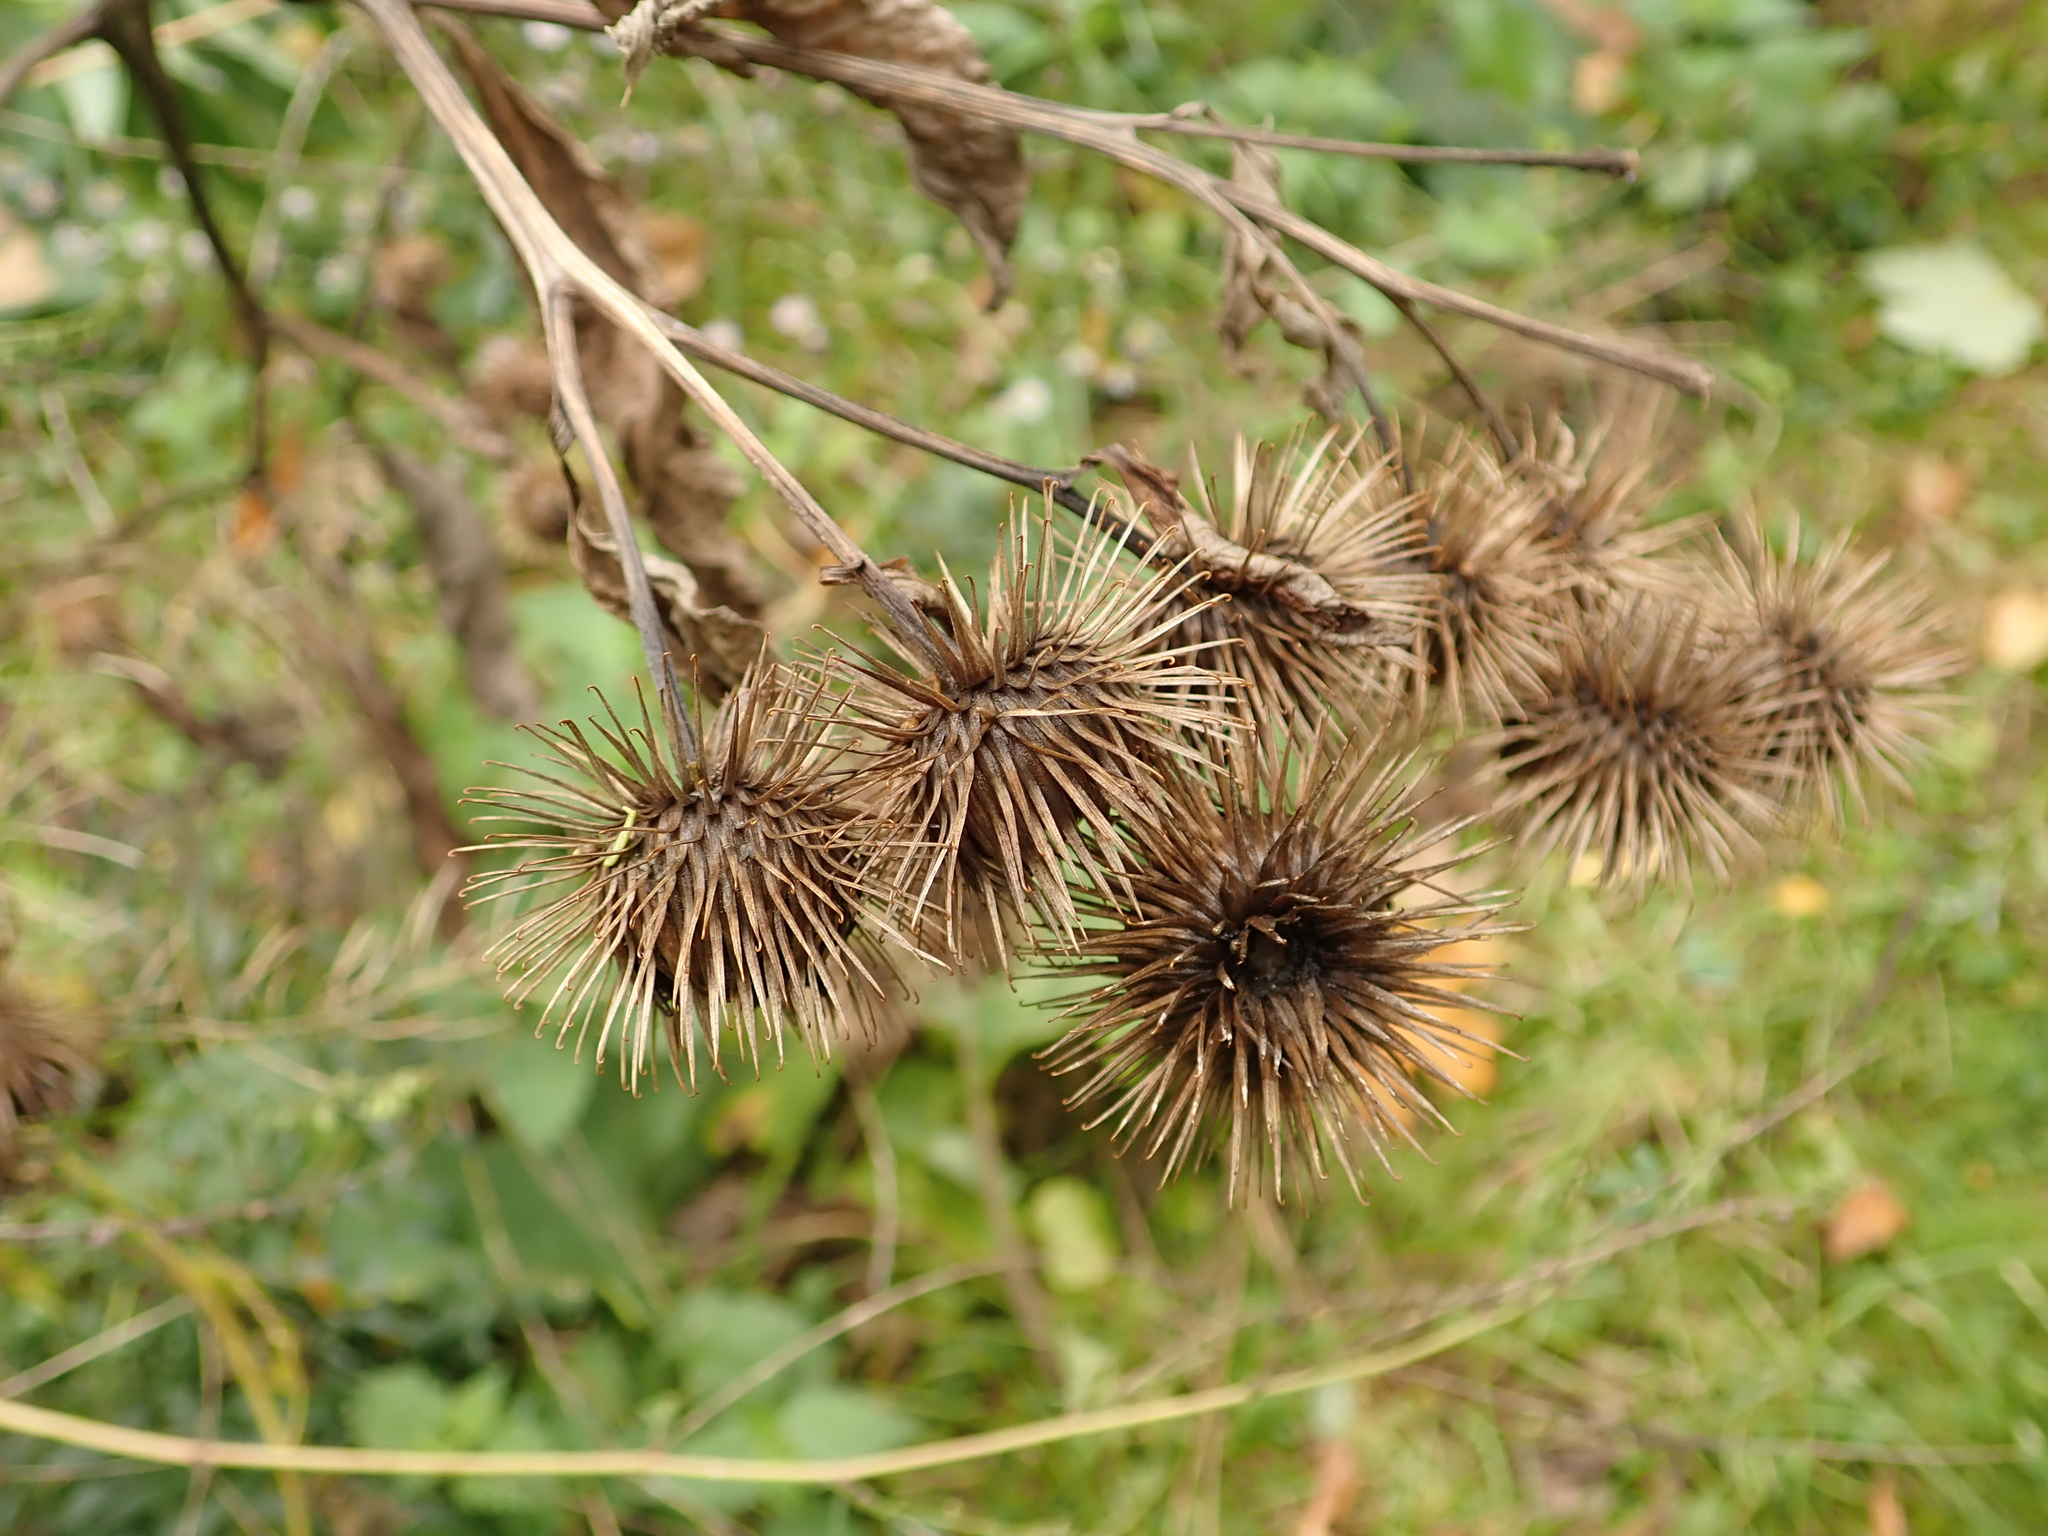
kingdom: Plantae
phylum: Tracheophyta
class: Magnoliopsida
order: Asterales
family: Asteraceae
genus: Arctium
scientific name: Arctium lappa
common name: Greater burdock
